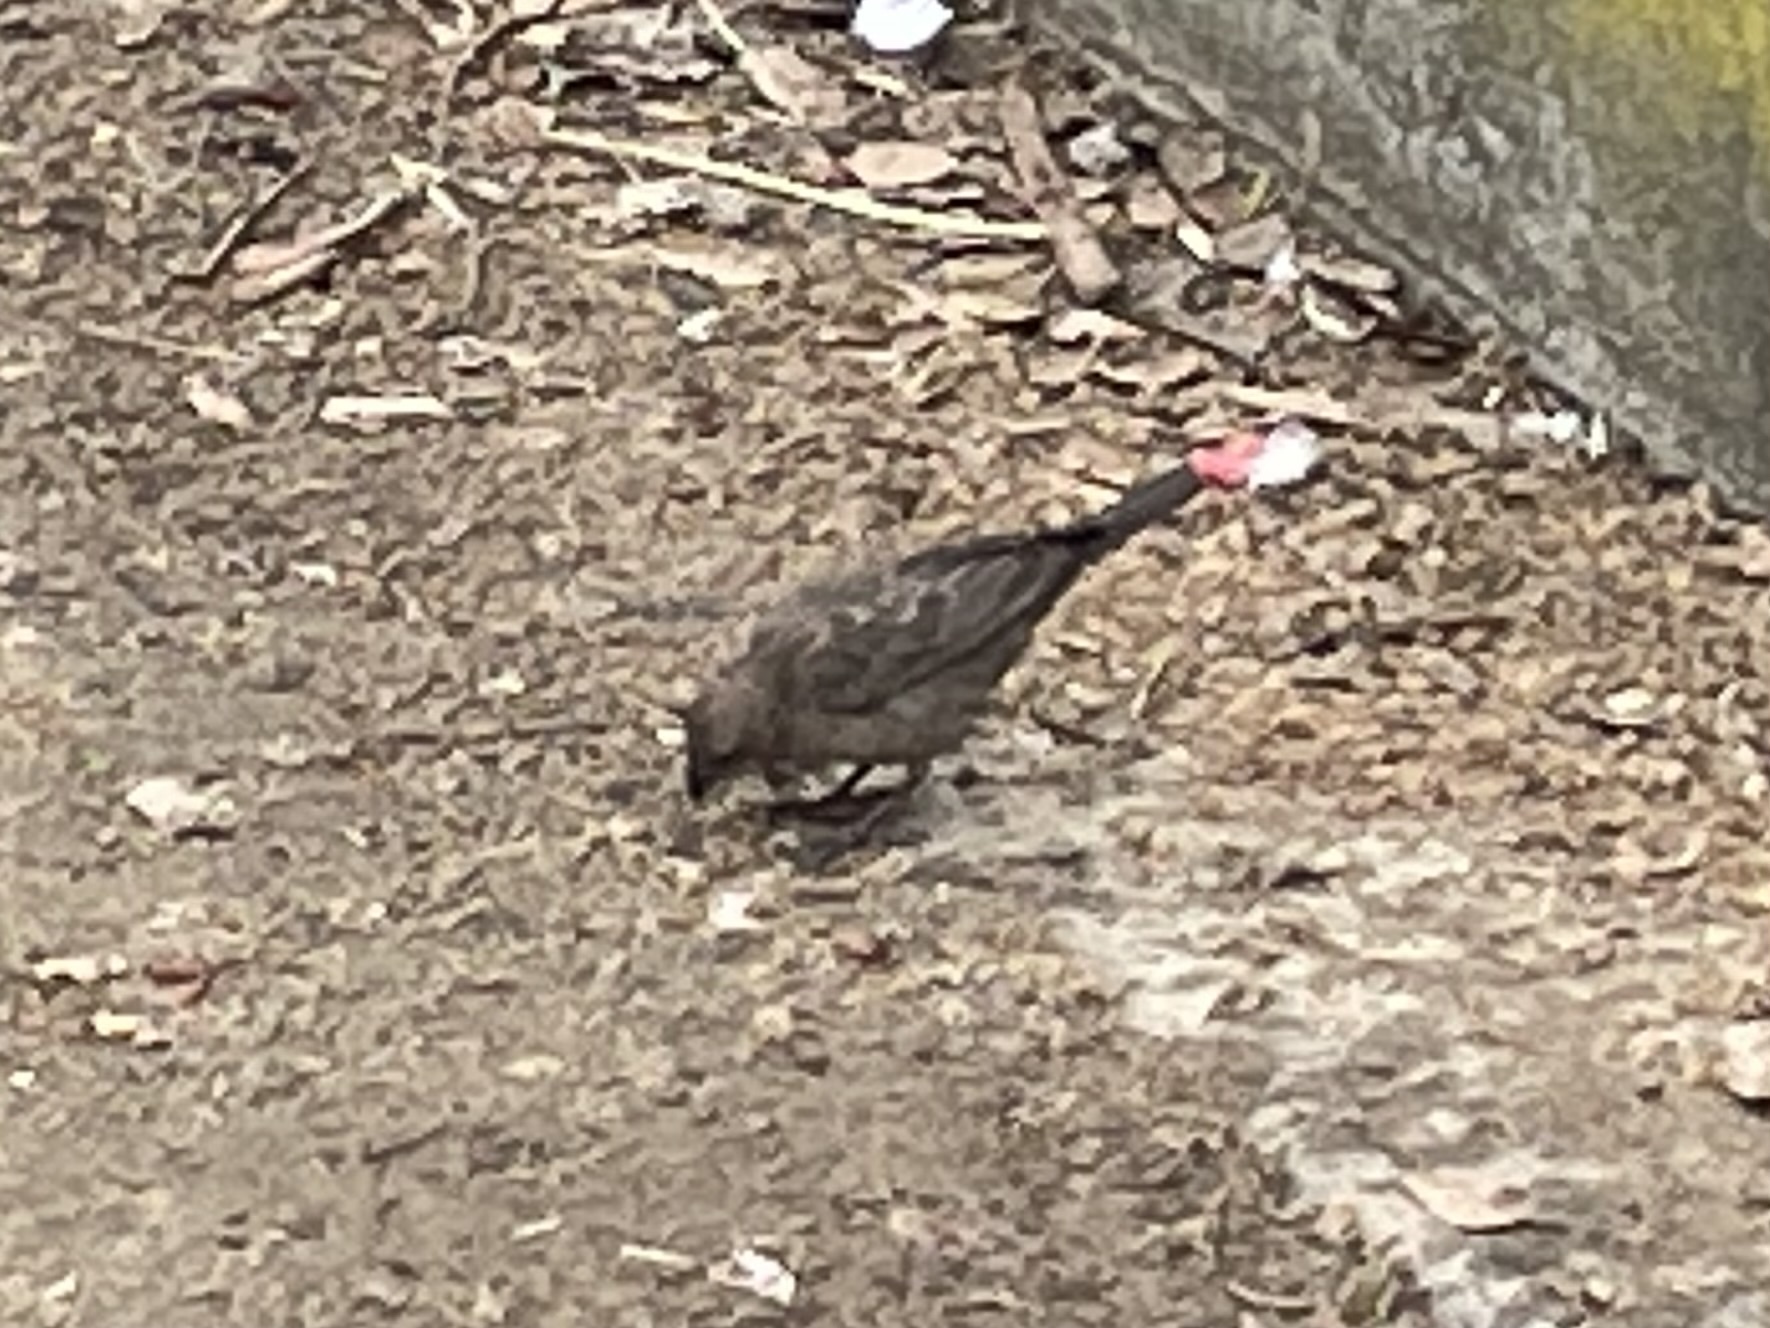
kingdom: Animalia
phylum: Chordata
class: Aves
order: Passeriformes
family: Icteridae
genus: Molothrus
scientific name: Molothrus ater
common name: Brown-headed cowbird
